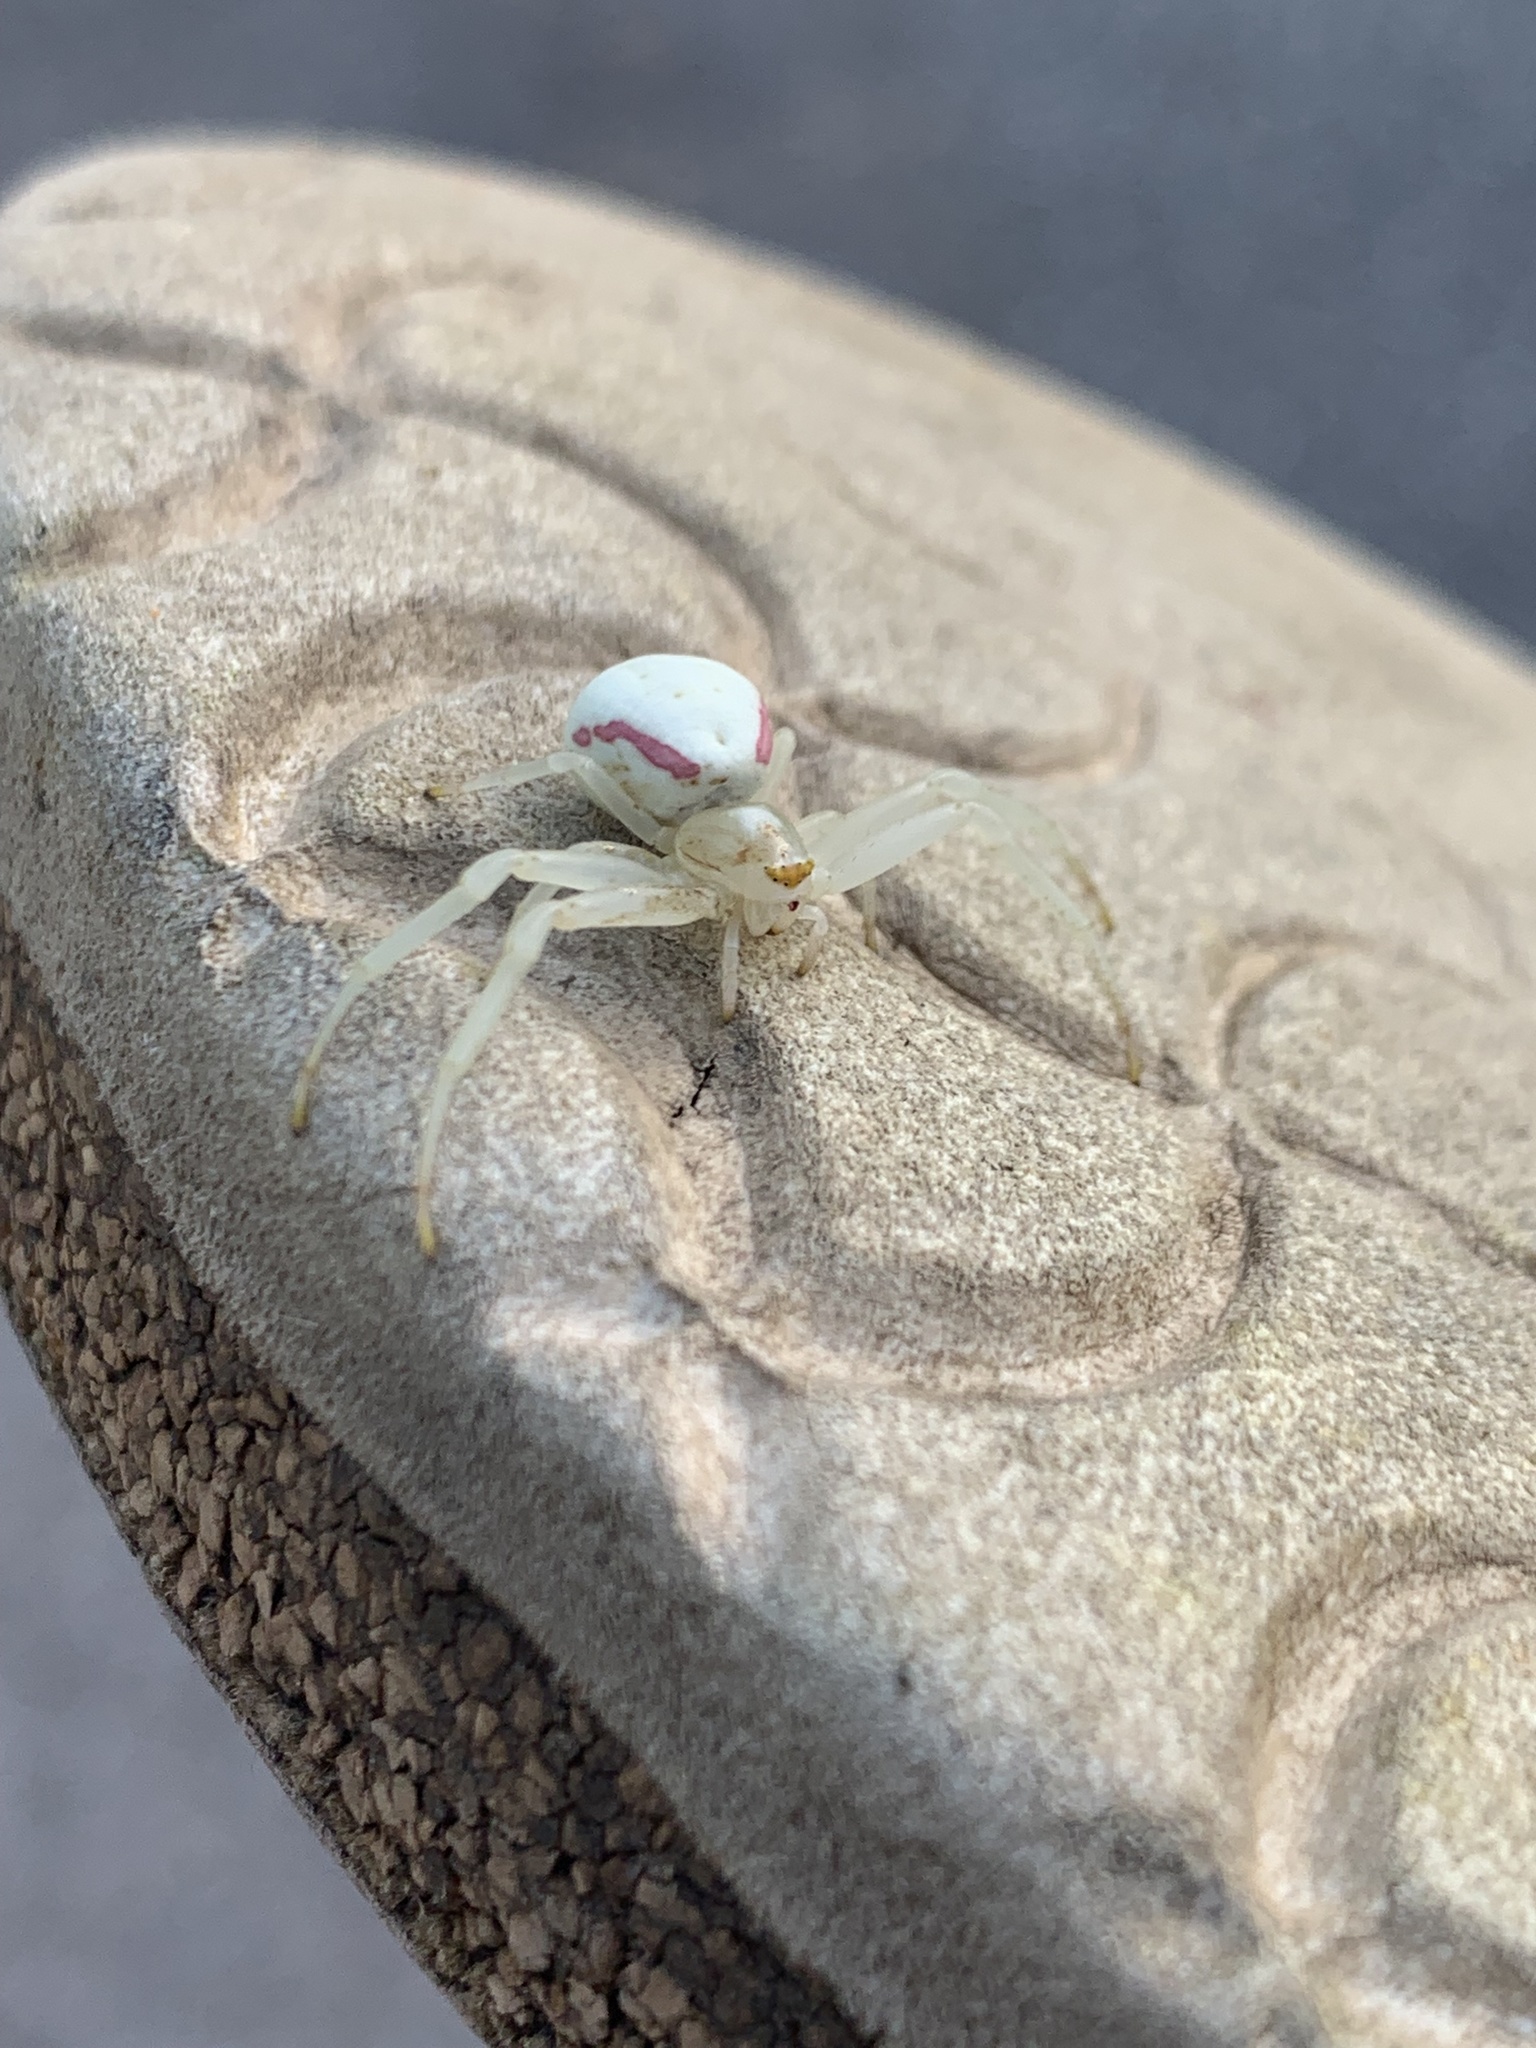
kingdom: Animalia
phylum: Arthropoda
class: Arachnida
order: Araneae
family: Thomisidae
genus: Misumena
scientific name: Misumena vatia
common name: Goldenrod crab spider
